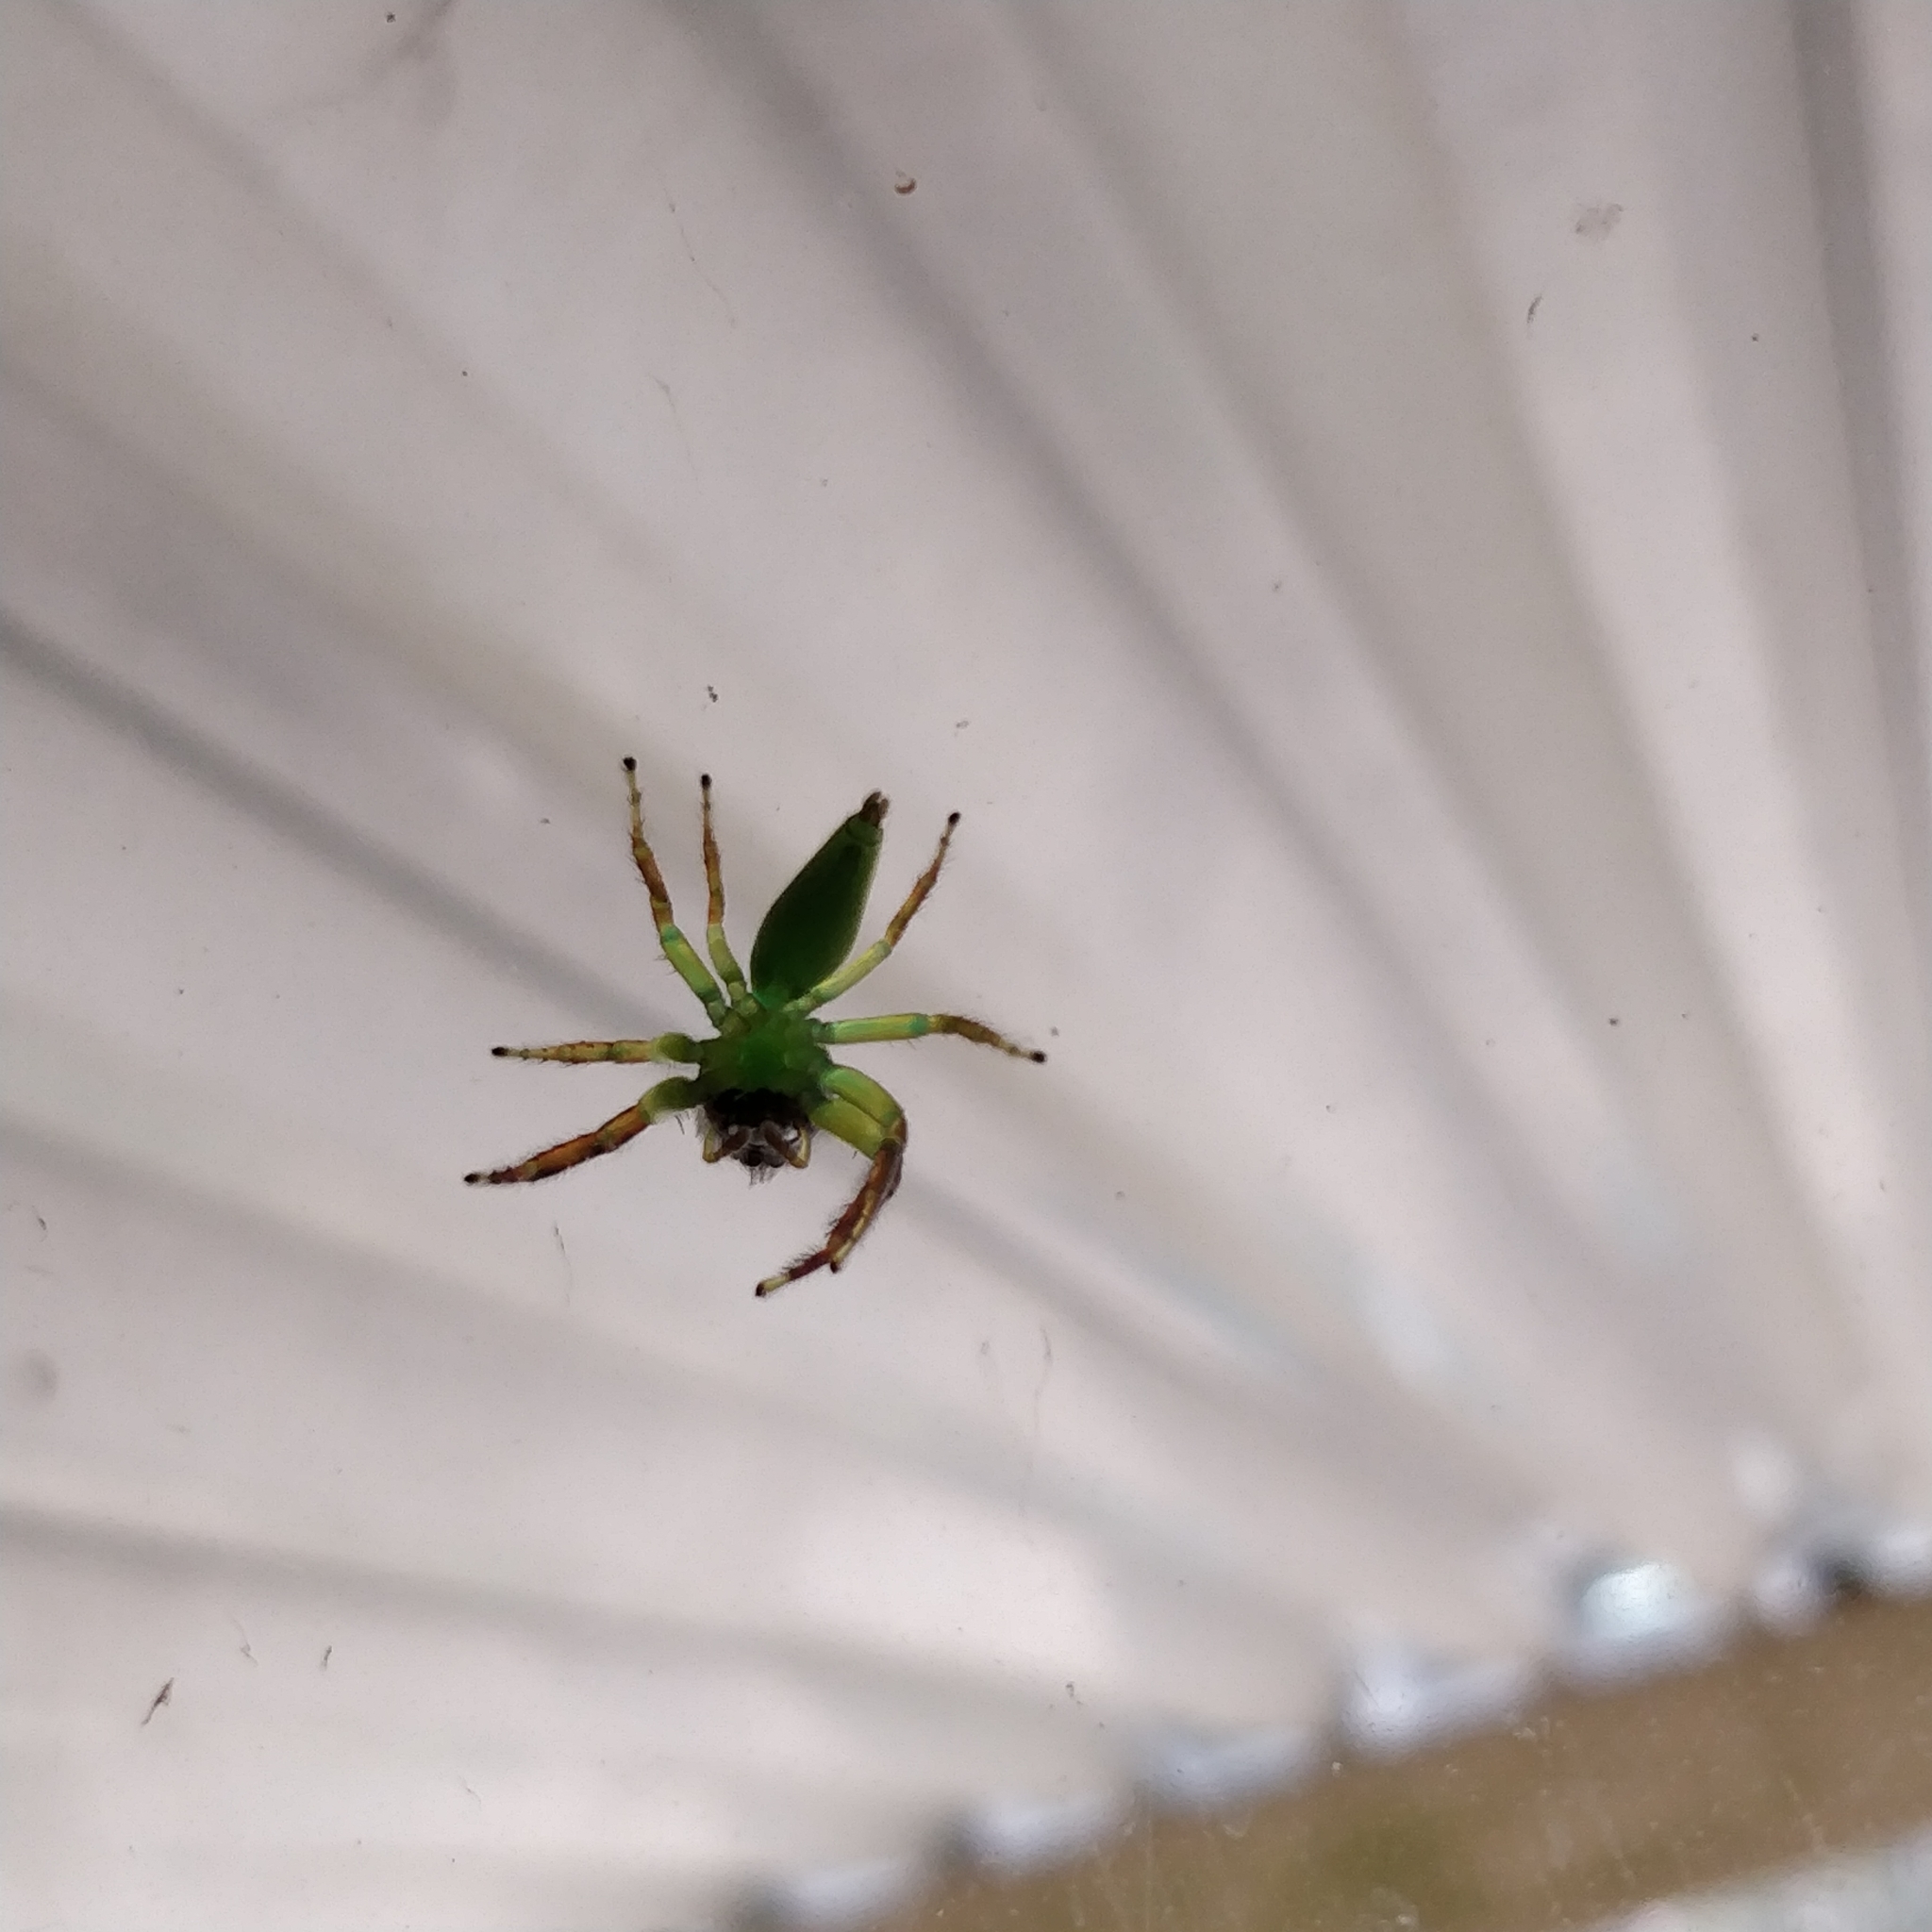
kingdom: Animalia
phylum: Arthropoda
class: Arachnida
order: Araneae
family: Salticidae
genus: Mopsus
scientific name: Mopsus mormon
